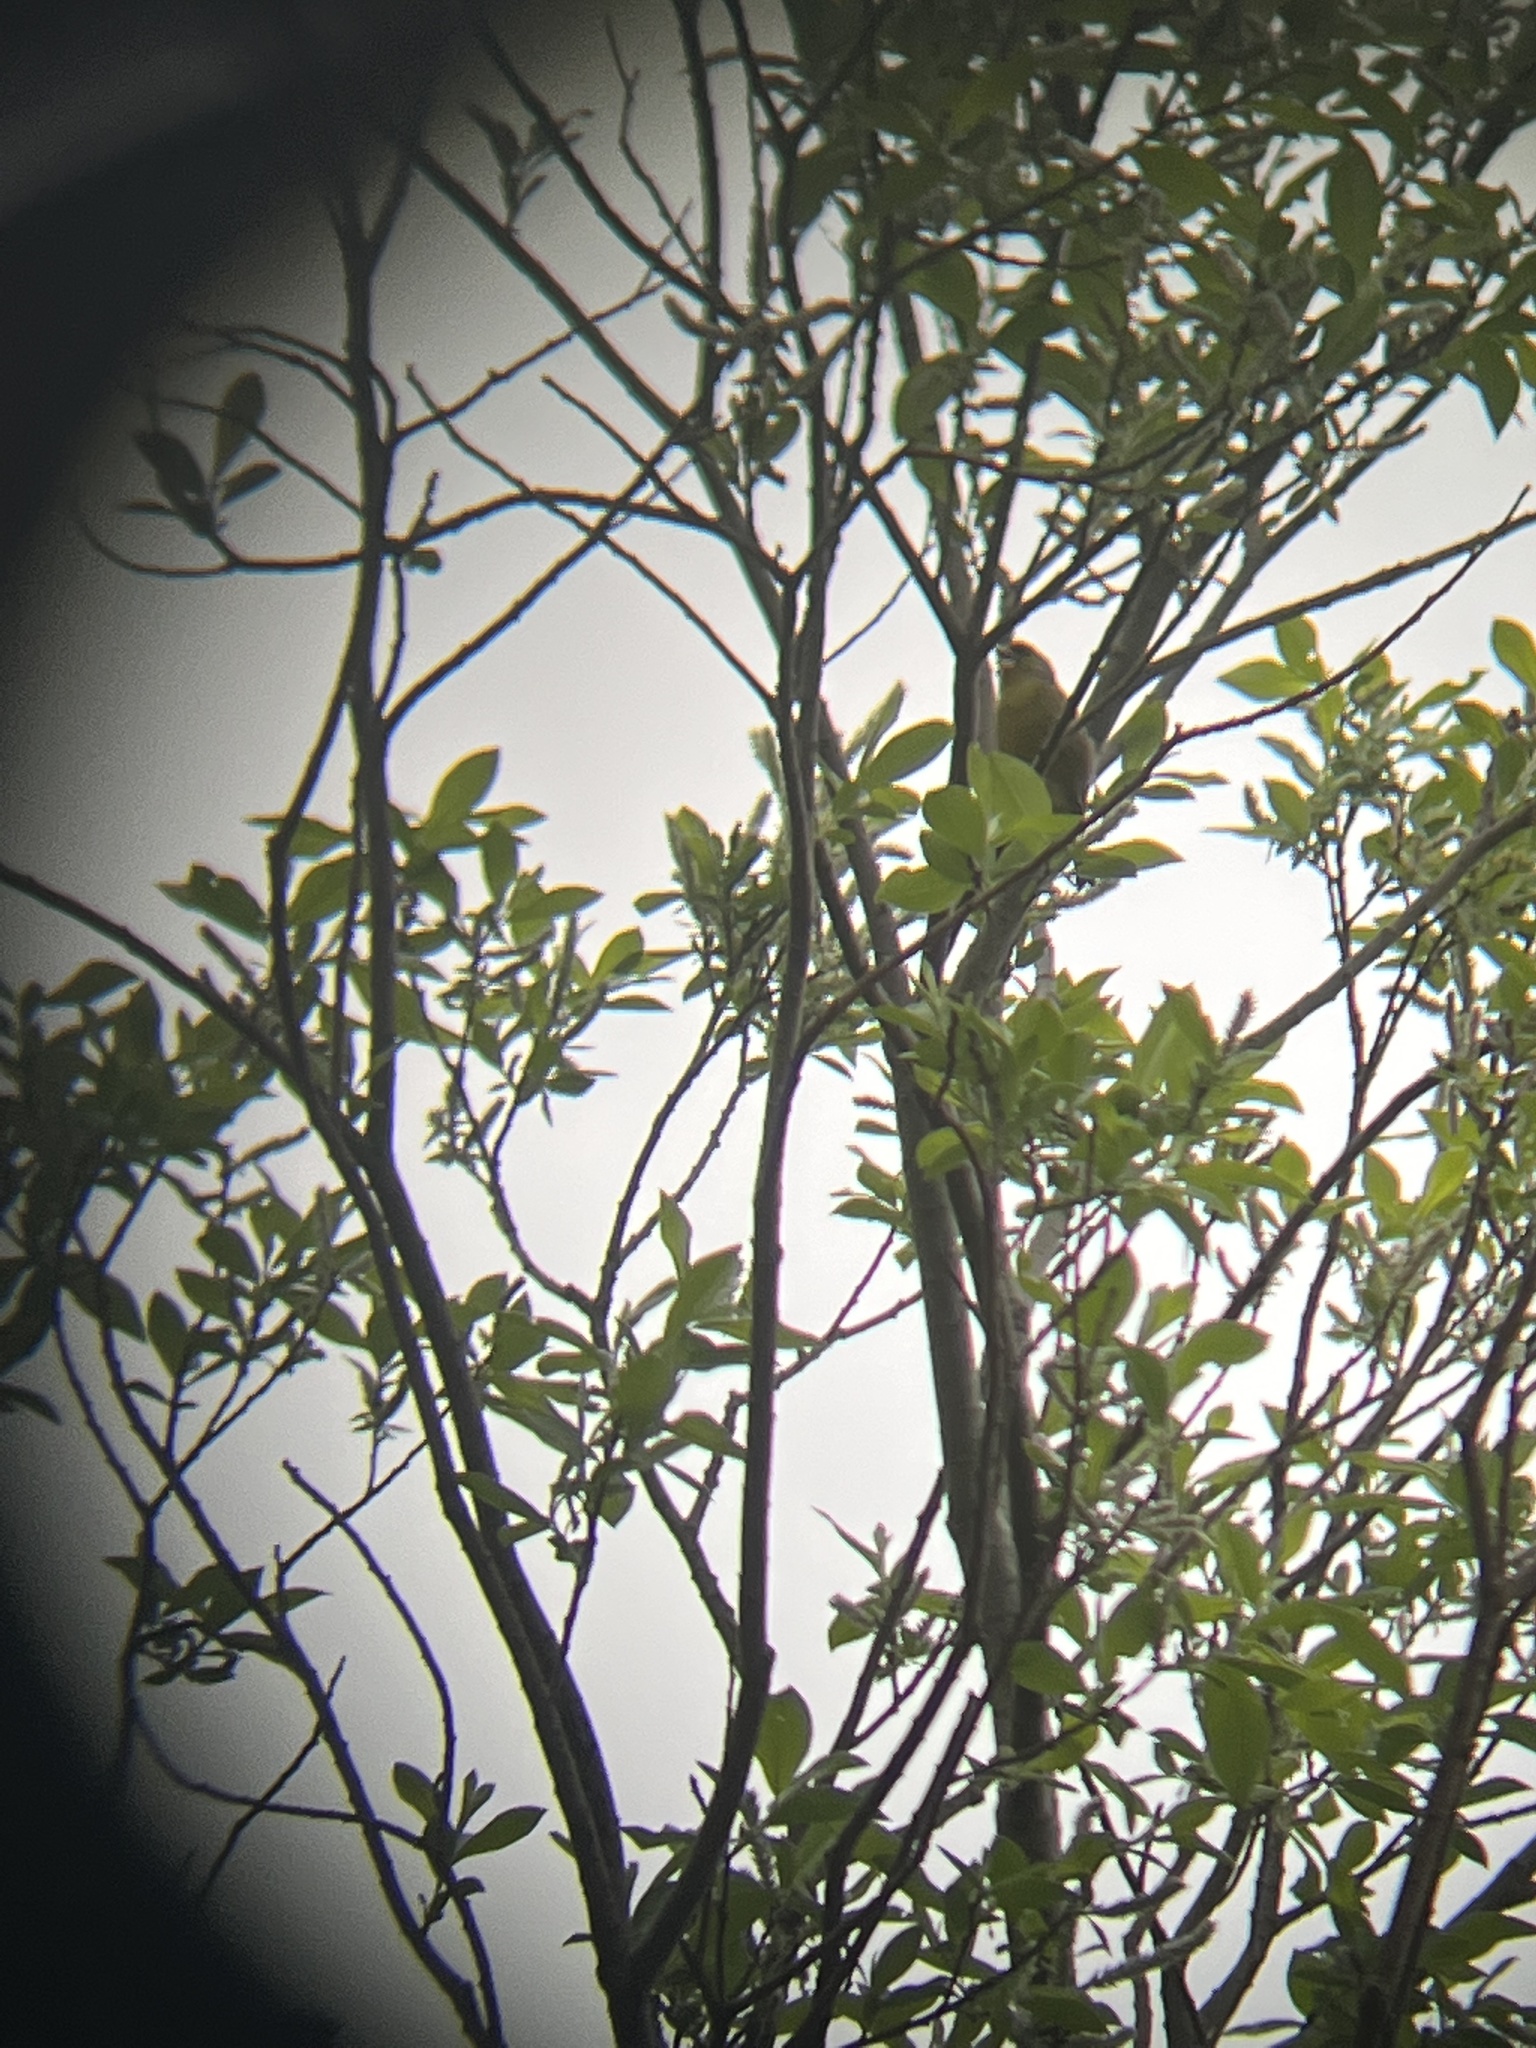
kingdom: Plantae
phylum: Tracheophyta
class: Liliopsida
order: Poales
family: Poaceae
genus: Chloris
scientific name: Chloris chloris
